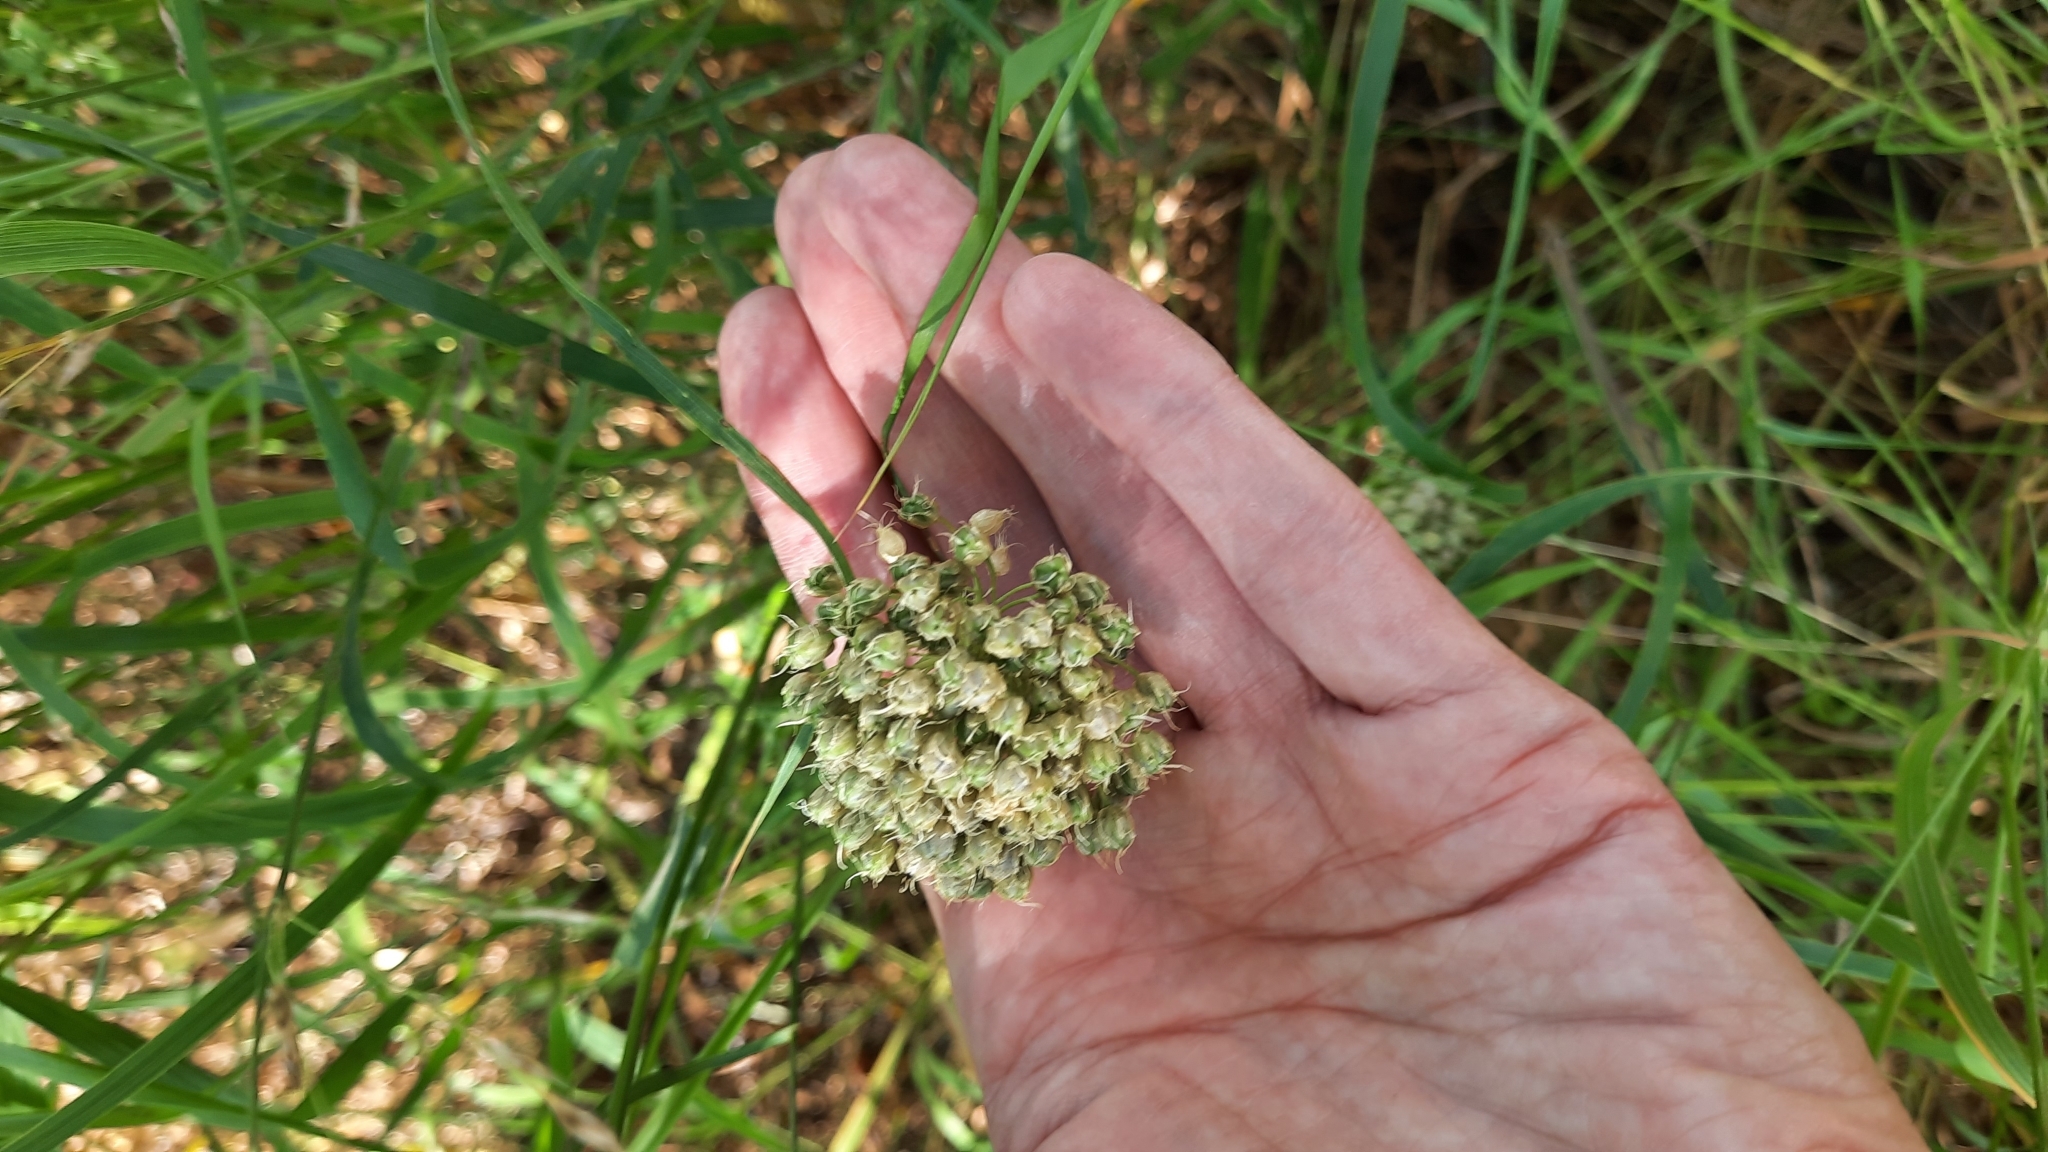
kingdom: Plantae
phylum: Tracheophyta
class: Liliopsida
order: Asparagales
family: Amaryllidaceae
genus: Allium
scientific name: Allium obliquum
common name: Oblique onion
